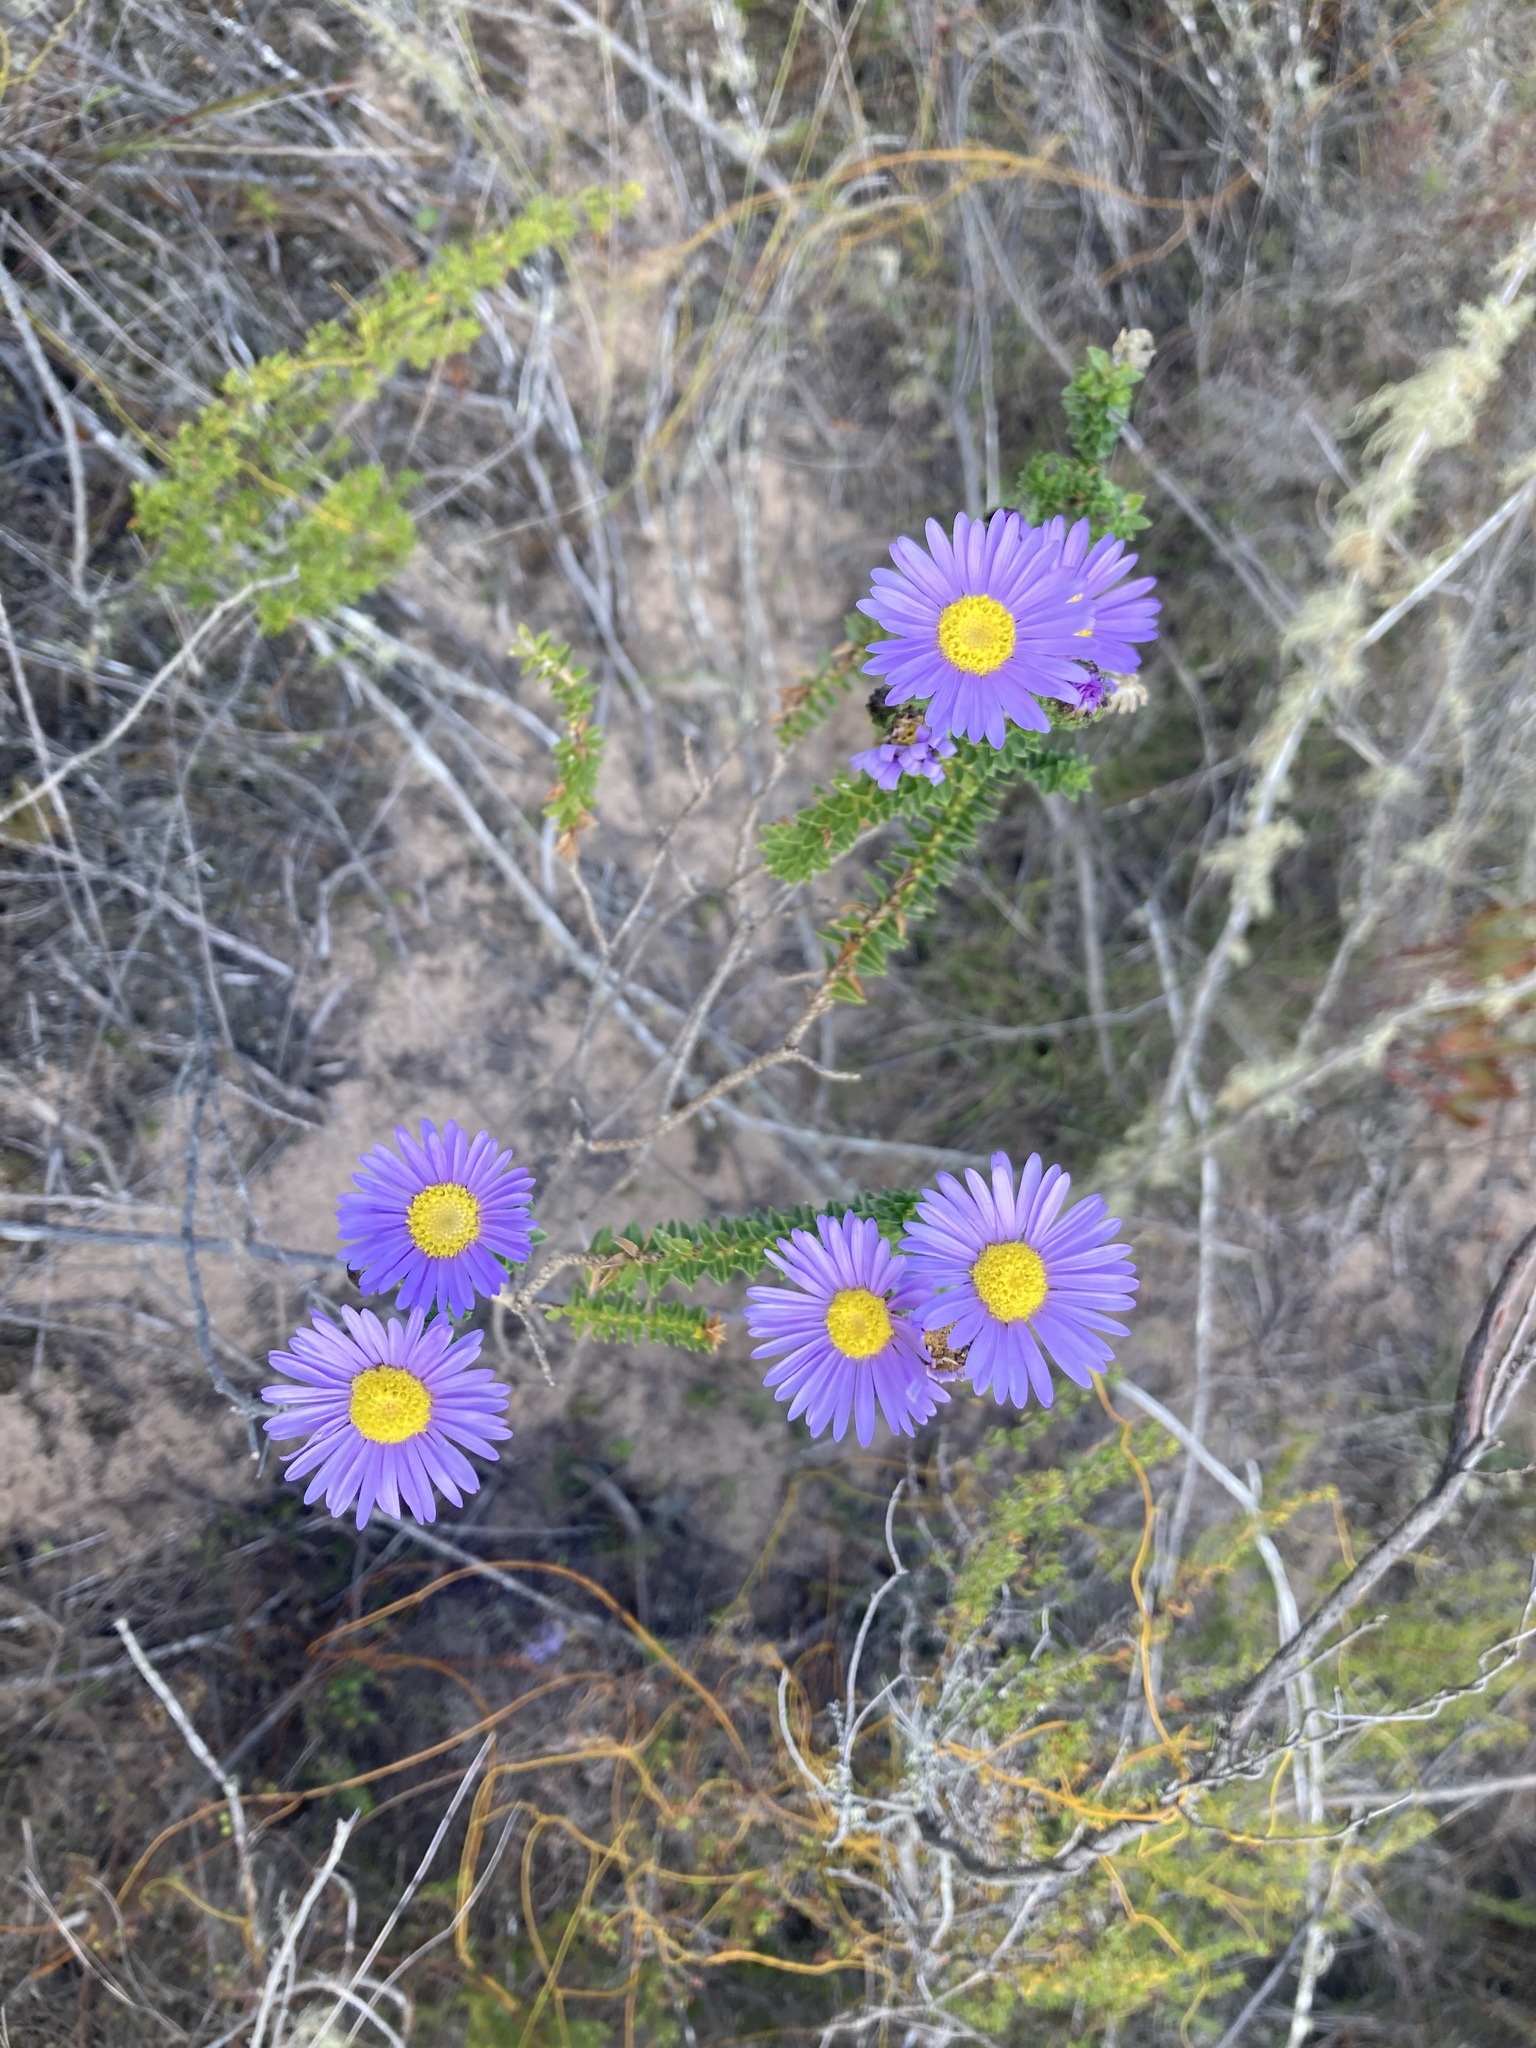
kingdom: Plantae
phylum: Tracheophyta
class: Magnoliopsida
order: Asterales
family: Asteraceae
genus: Felicia
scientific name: Felicia echinata
